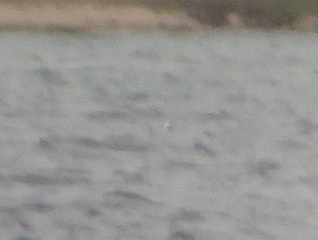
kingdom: Animalia
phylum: Chordata
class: Aves
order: Anseriformes
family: Anatidae
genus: Clangula
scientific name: Clangula hyemalis
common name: Long-tailed duck
